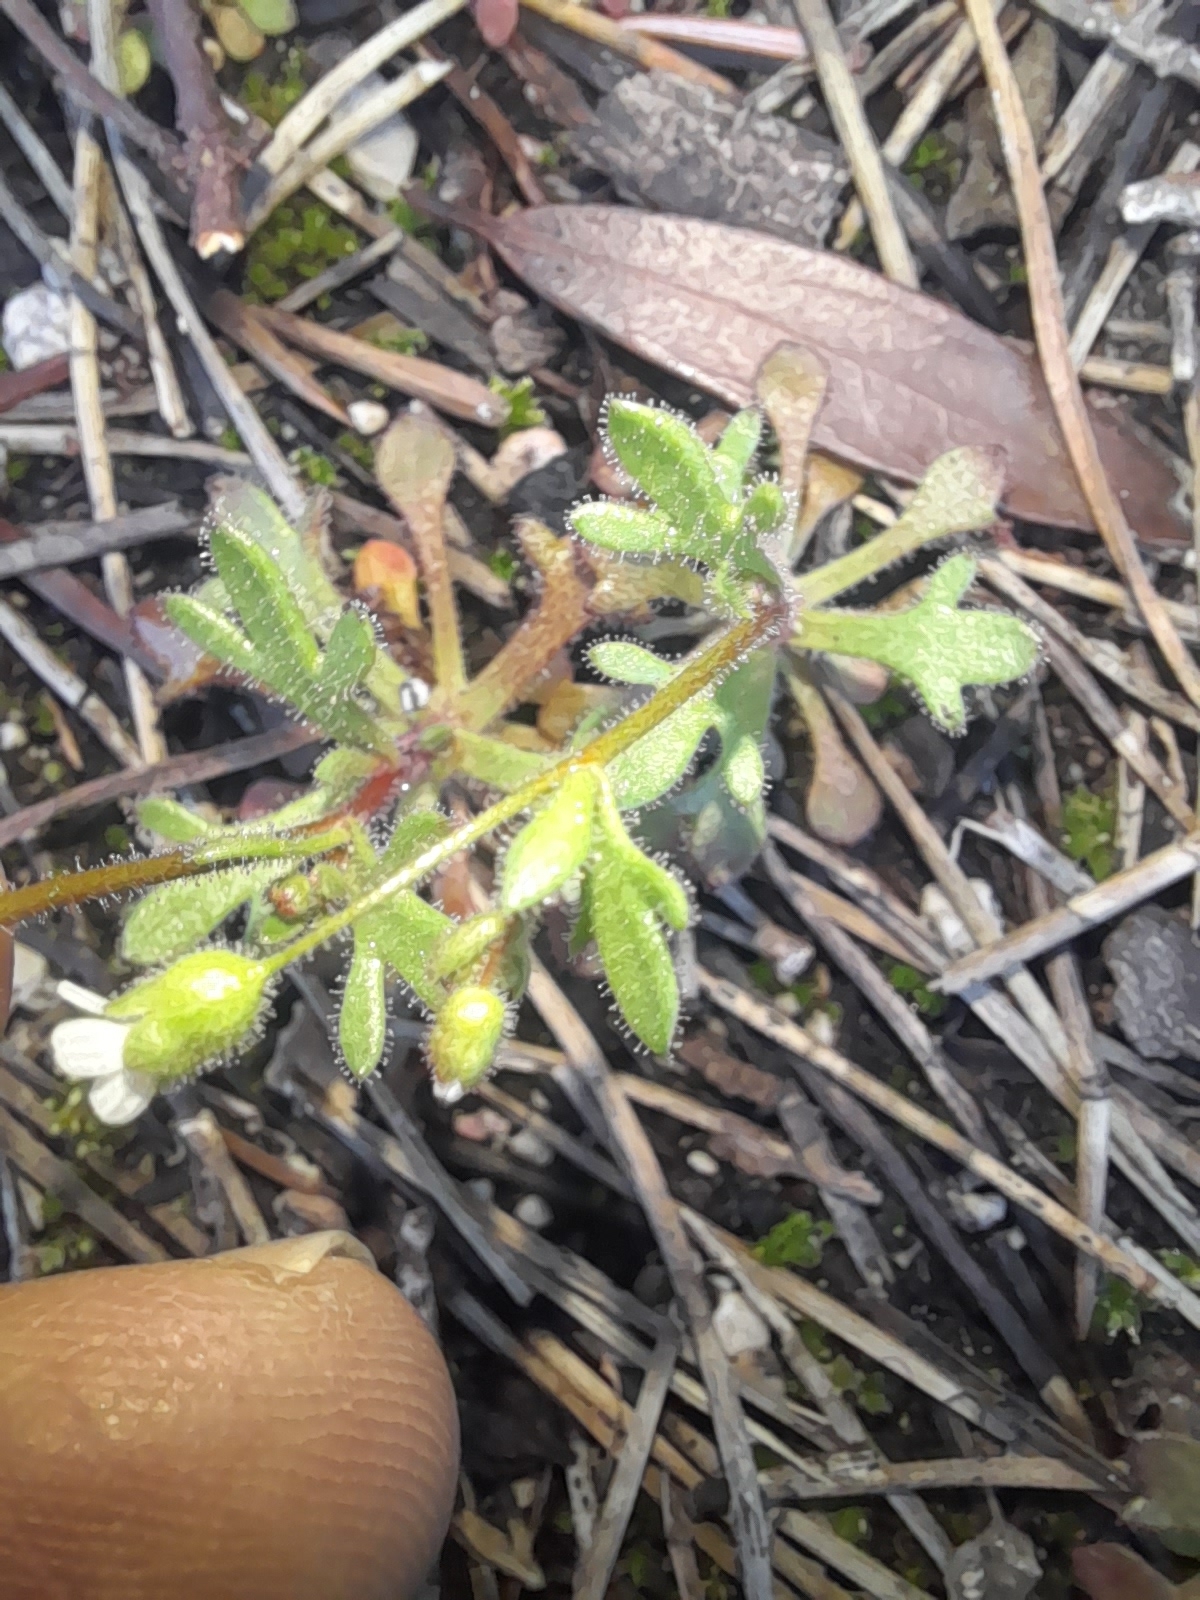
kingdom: Plantae
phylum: Tracheophyta
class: Magnoliopsida
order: Saxifragales
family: Saxifragaceae
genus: Saxifraga
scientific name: Saxifraga tridactylites
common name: Rue-leaved saxifrage
